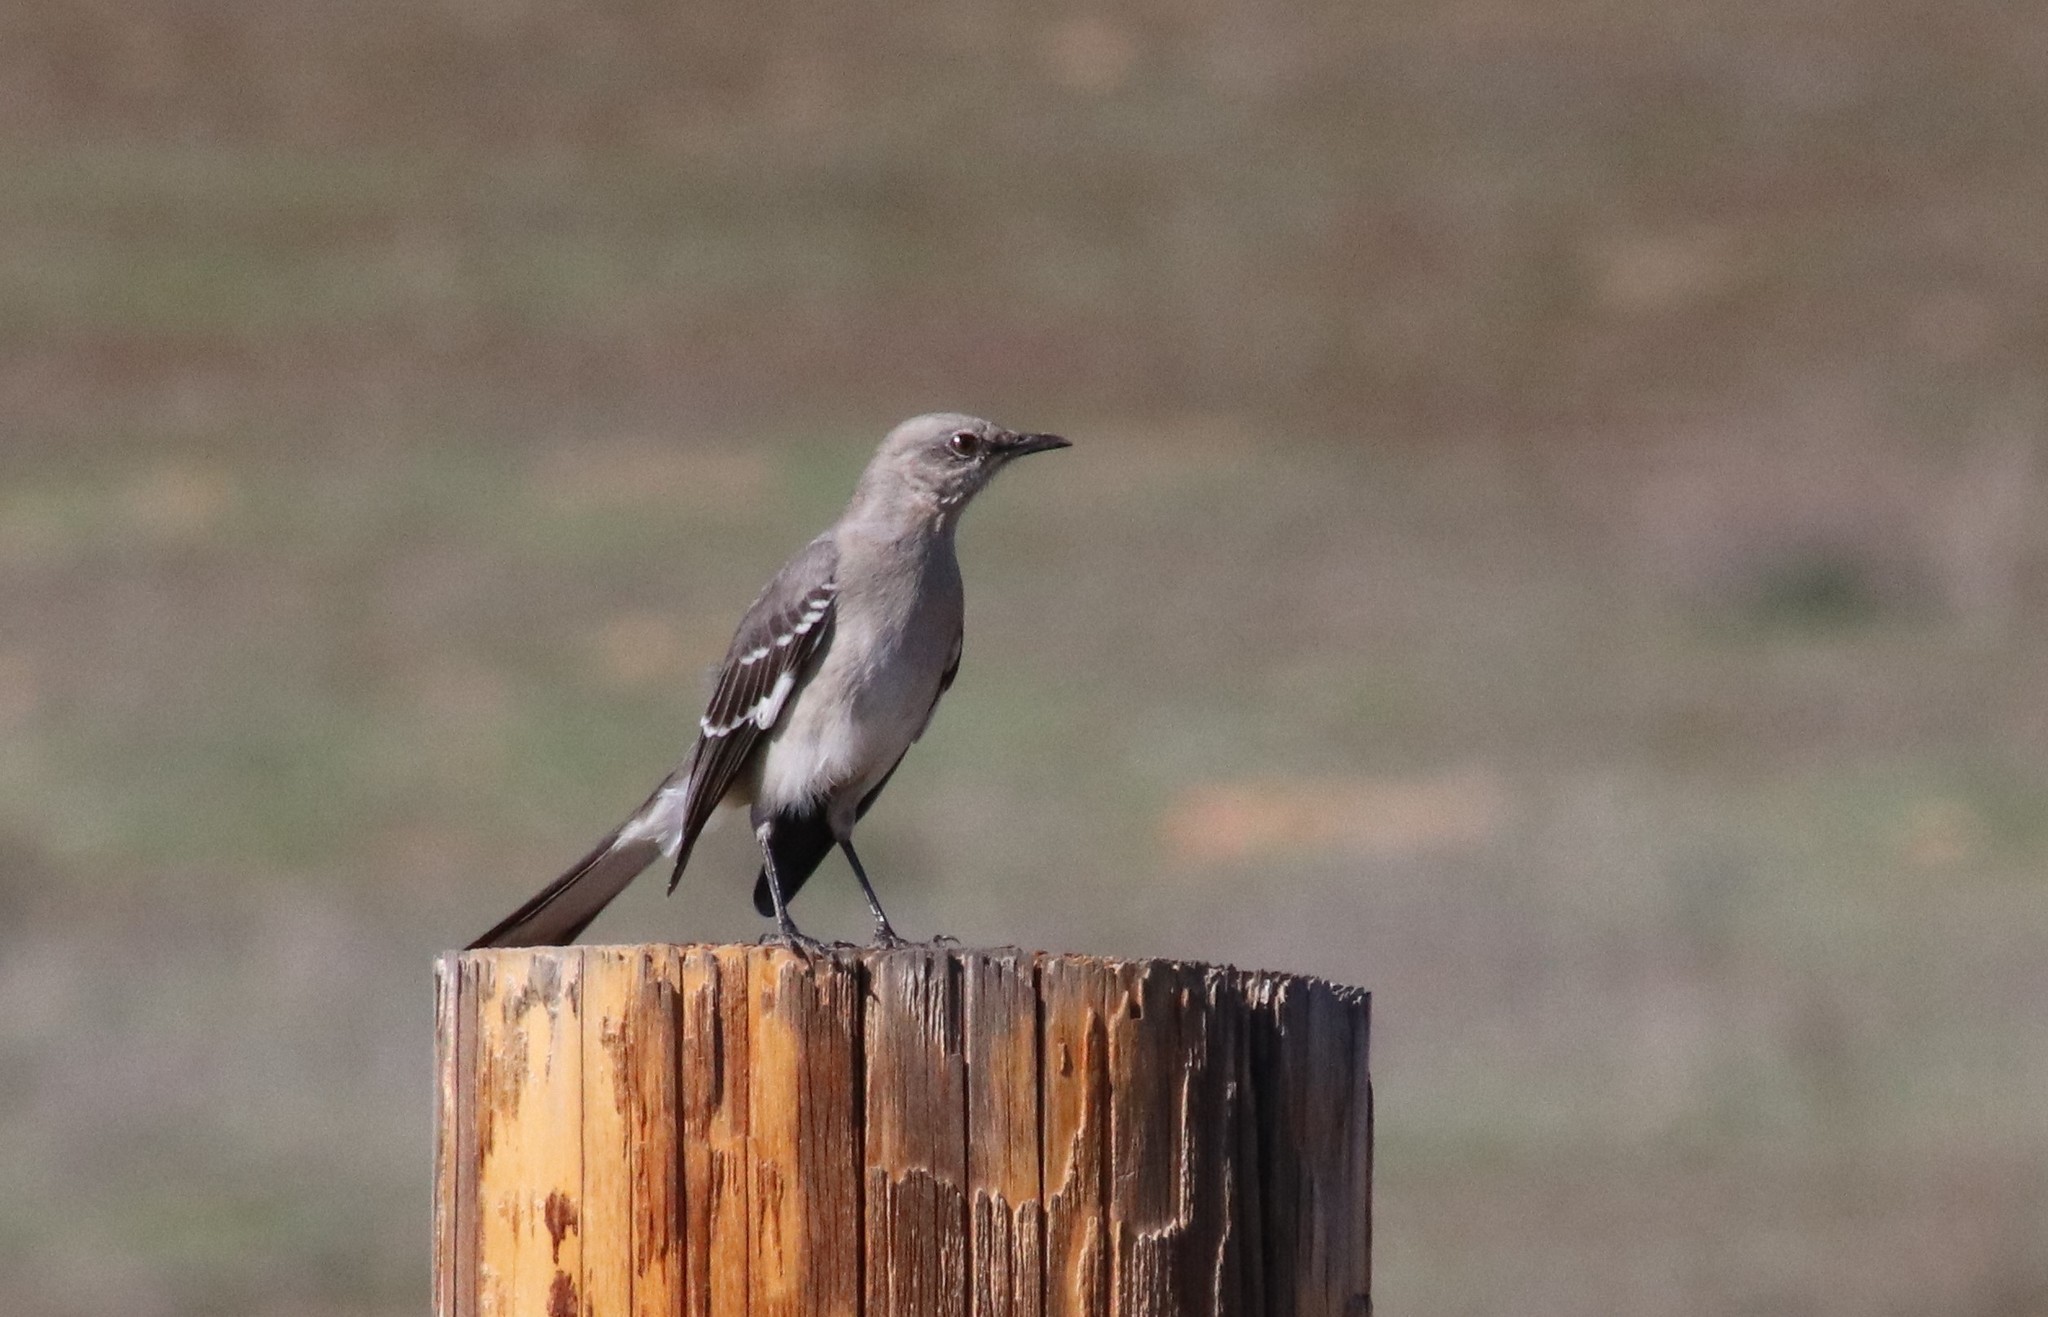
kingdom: Animalia
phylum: Chordata
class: Aves
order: Passeriformes
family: Mimidae
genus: Mimus
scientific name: Mimus polyglottos
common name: Northern mockingbird
